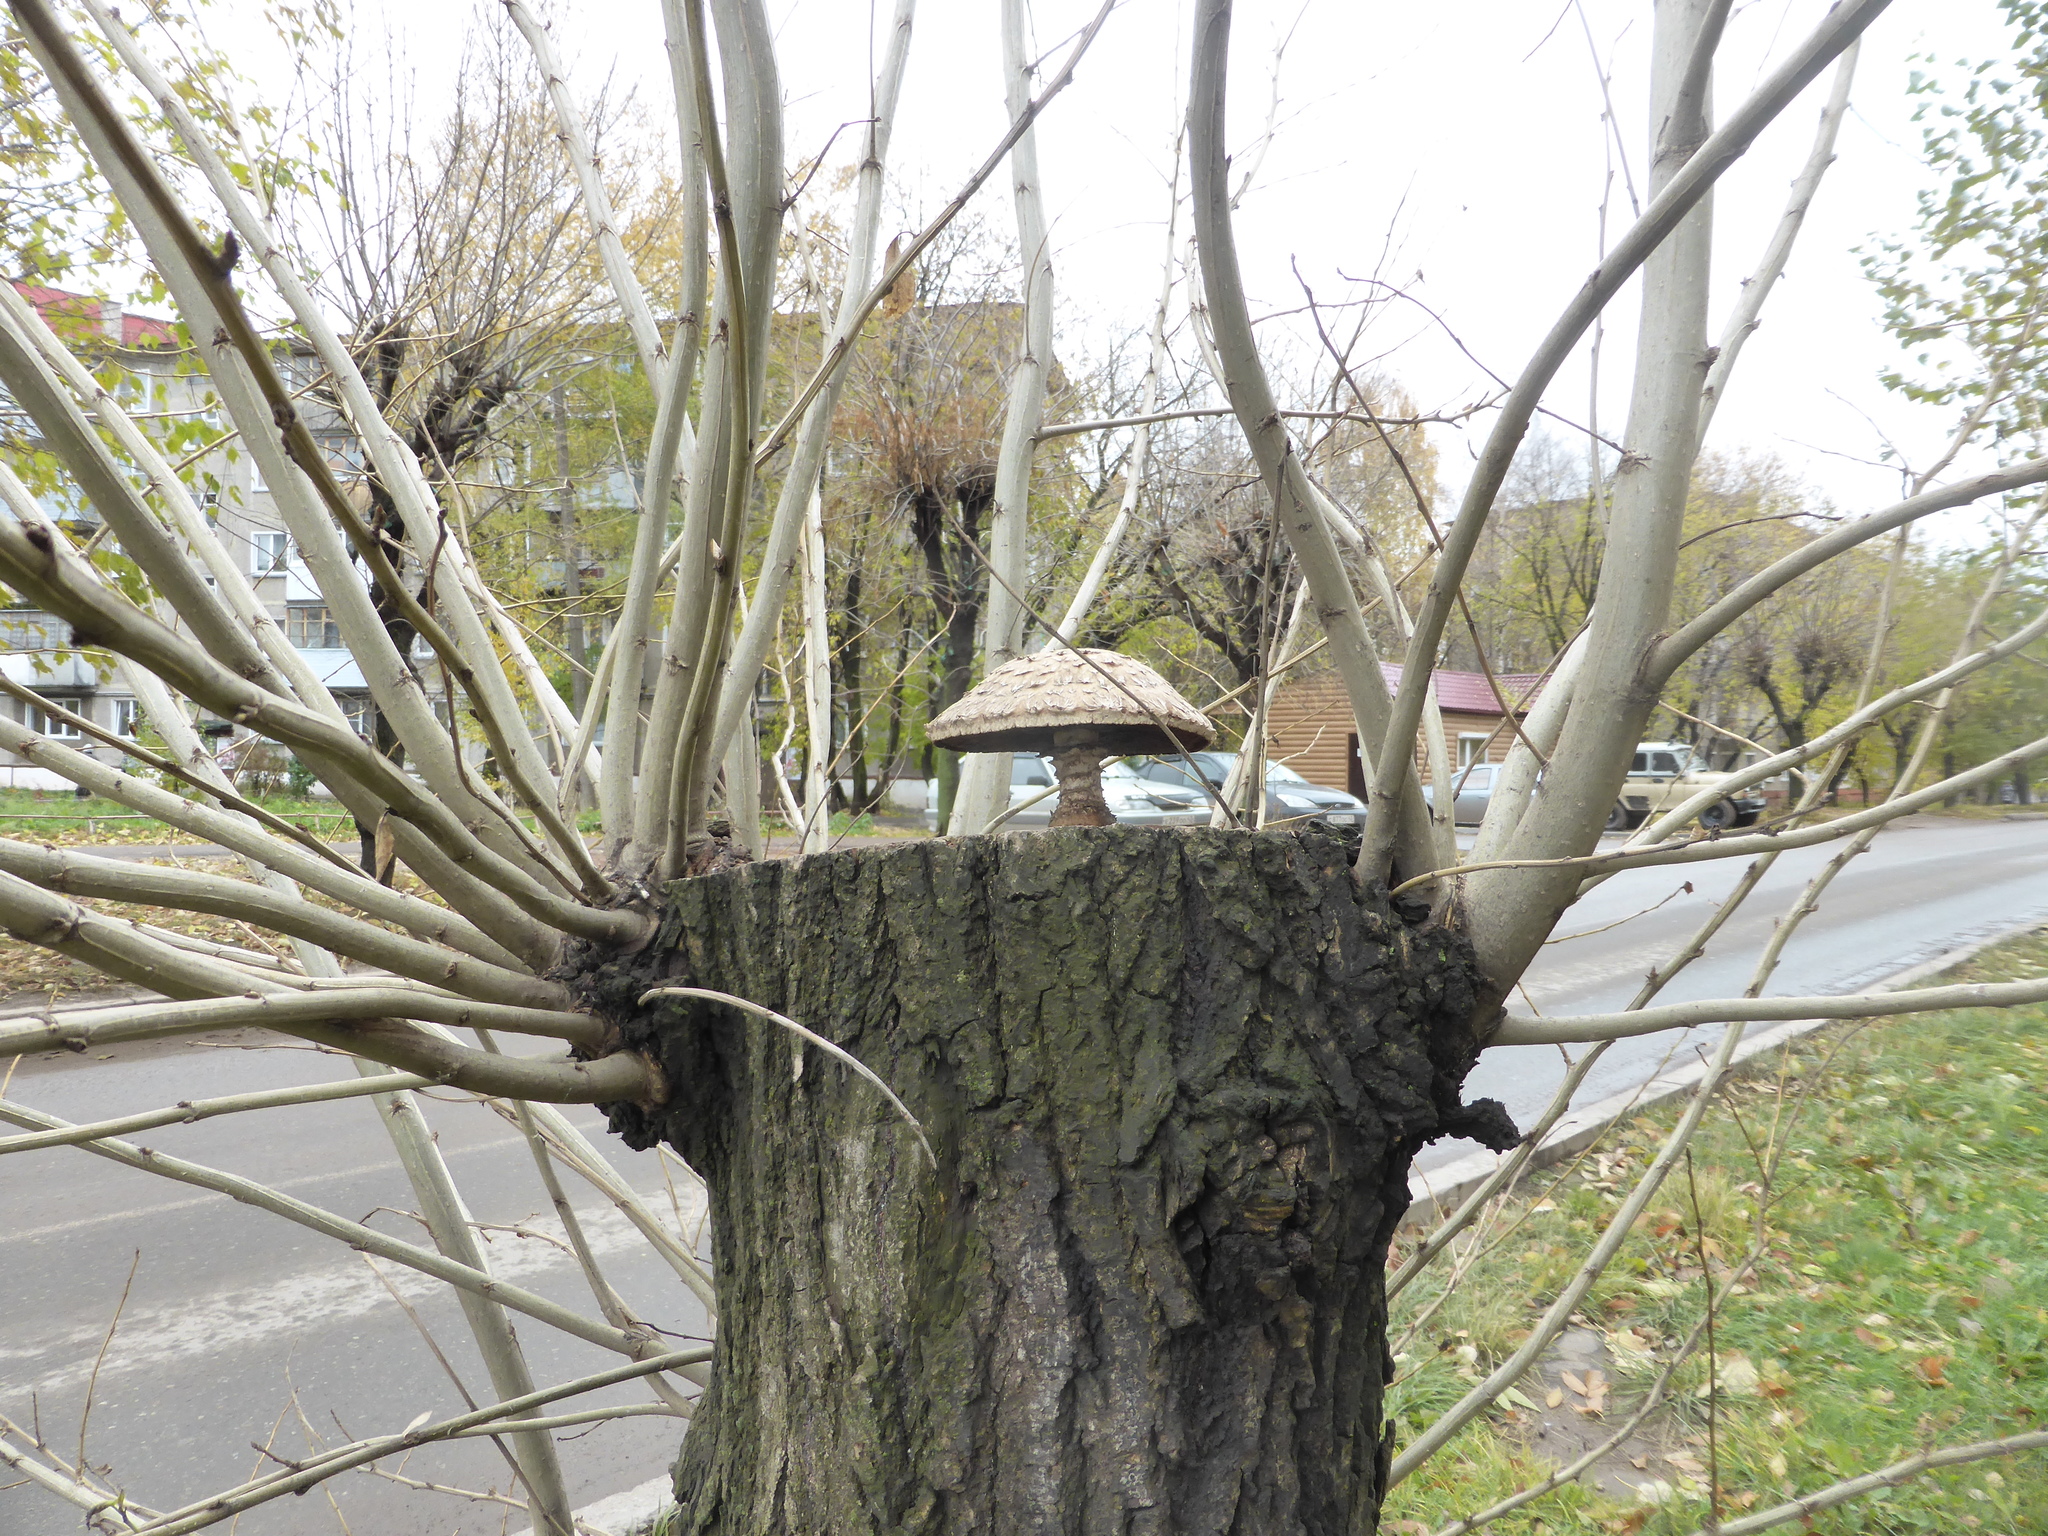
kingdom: Fungi
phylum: Basidiomycota
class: Agaricomycetes
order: Agaricales
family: Strophariaceae
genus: Pholiota
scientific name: Pholiota populnea
